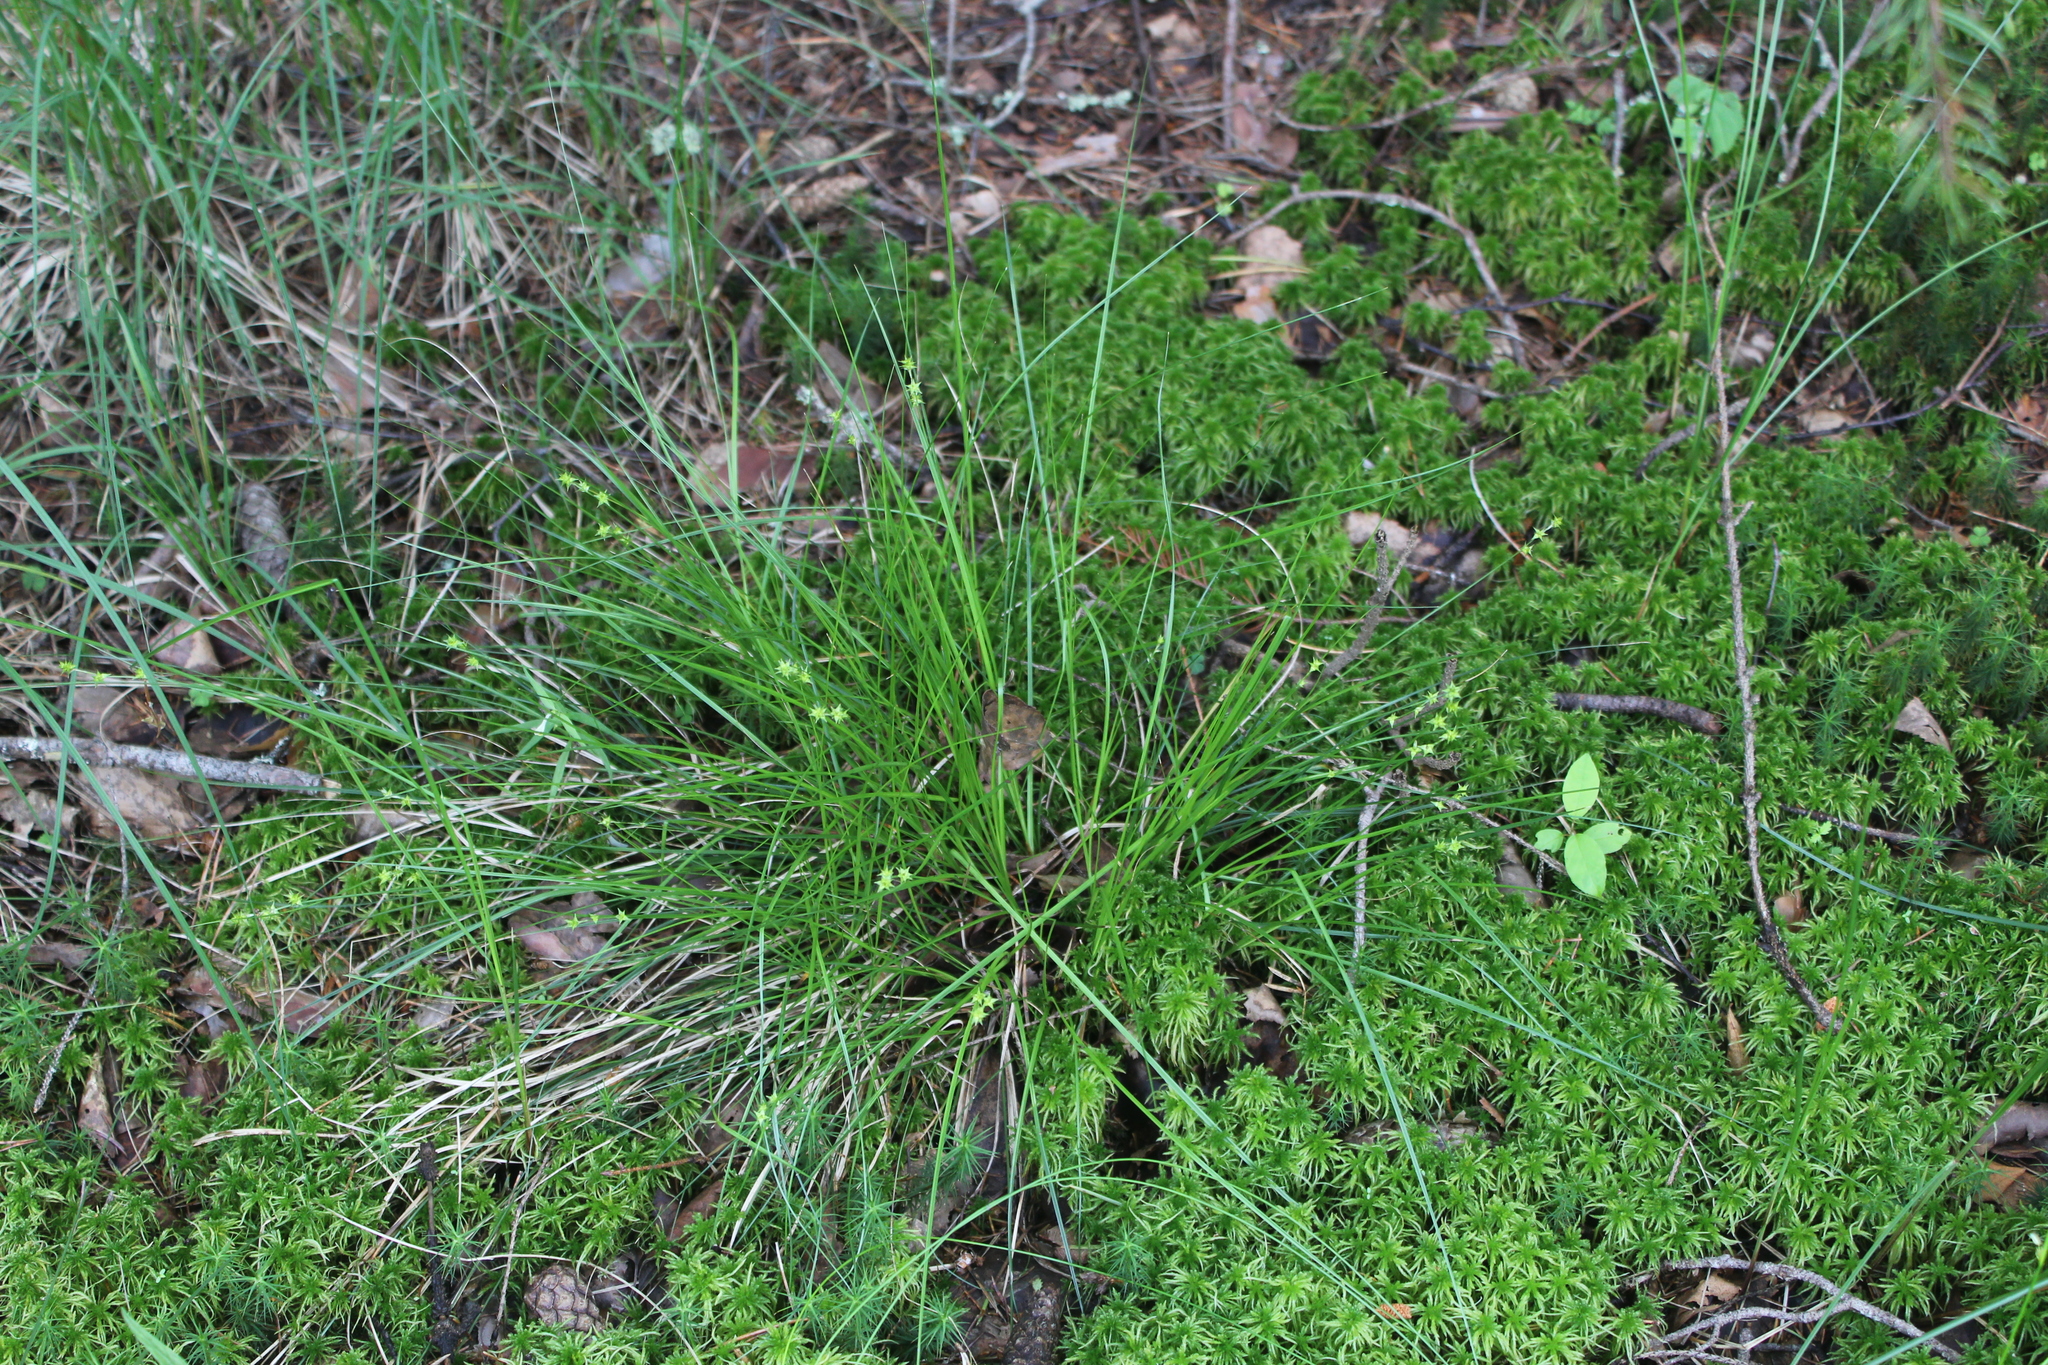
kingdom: Plantae
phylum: Tracheophyta
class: Liliopsida
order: Poales
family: Cyperaceae
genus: Carex
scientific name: Carex echinata
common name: Star sedge
